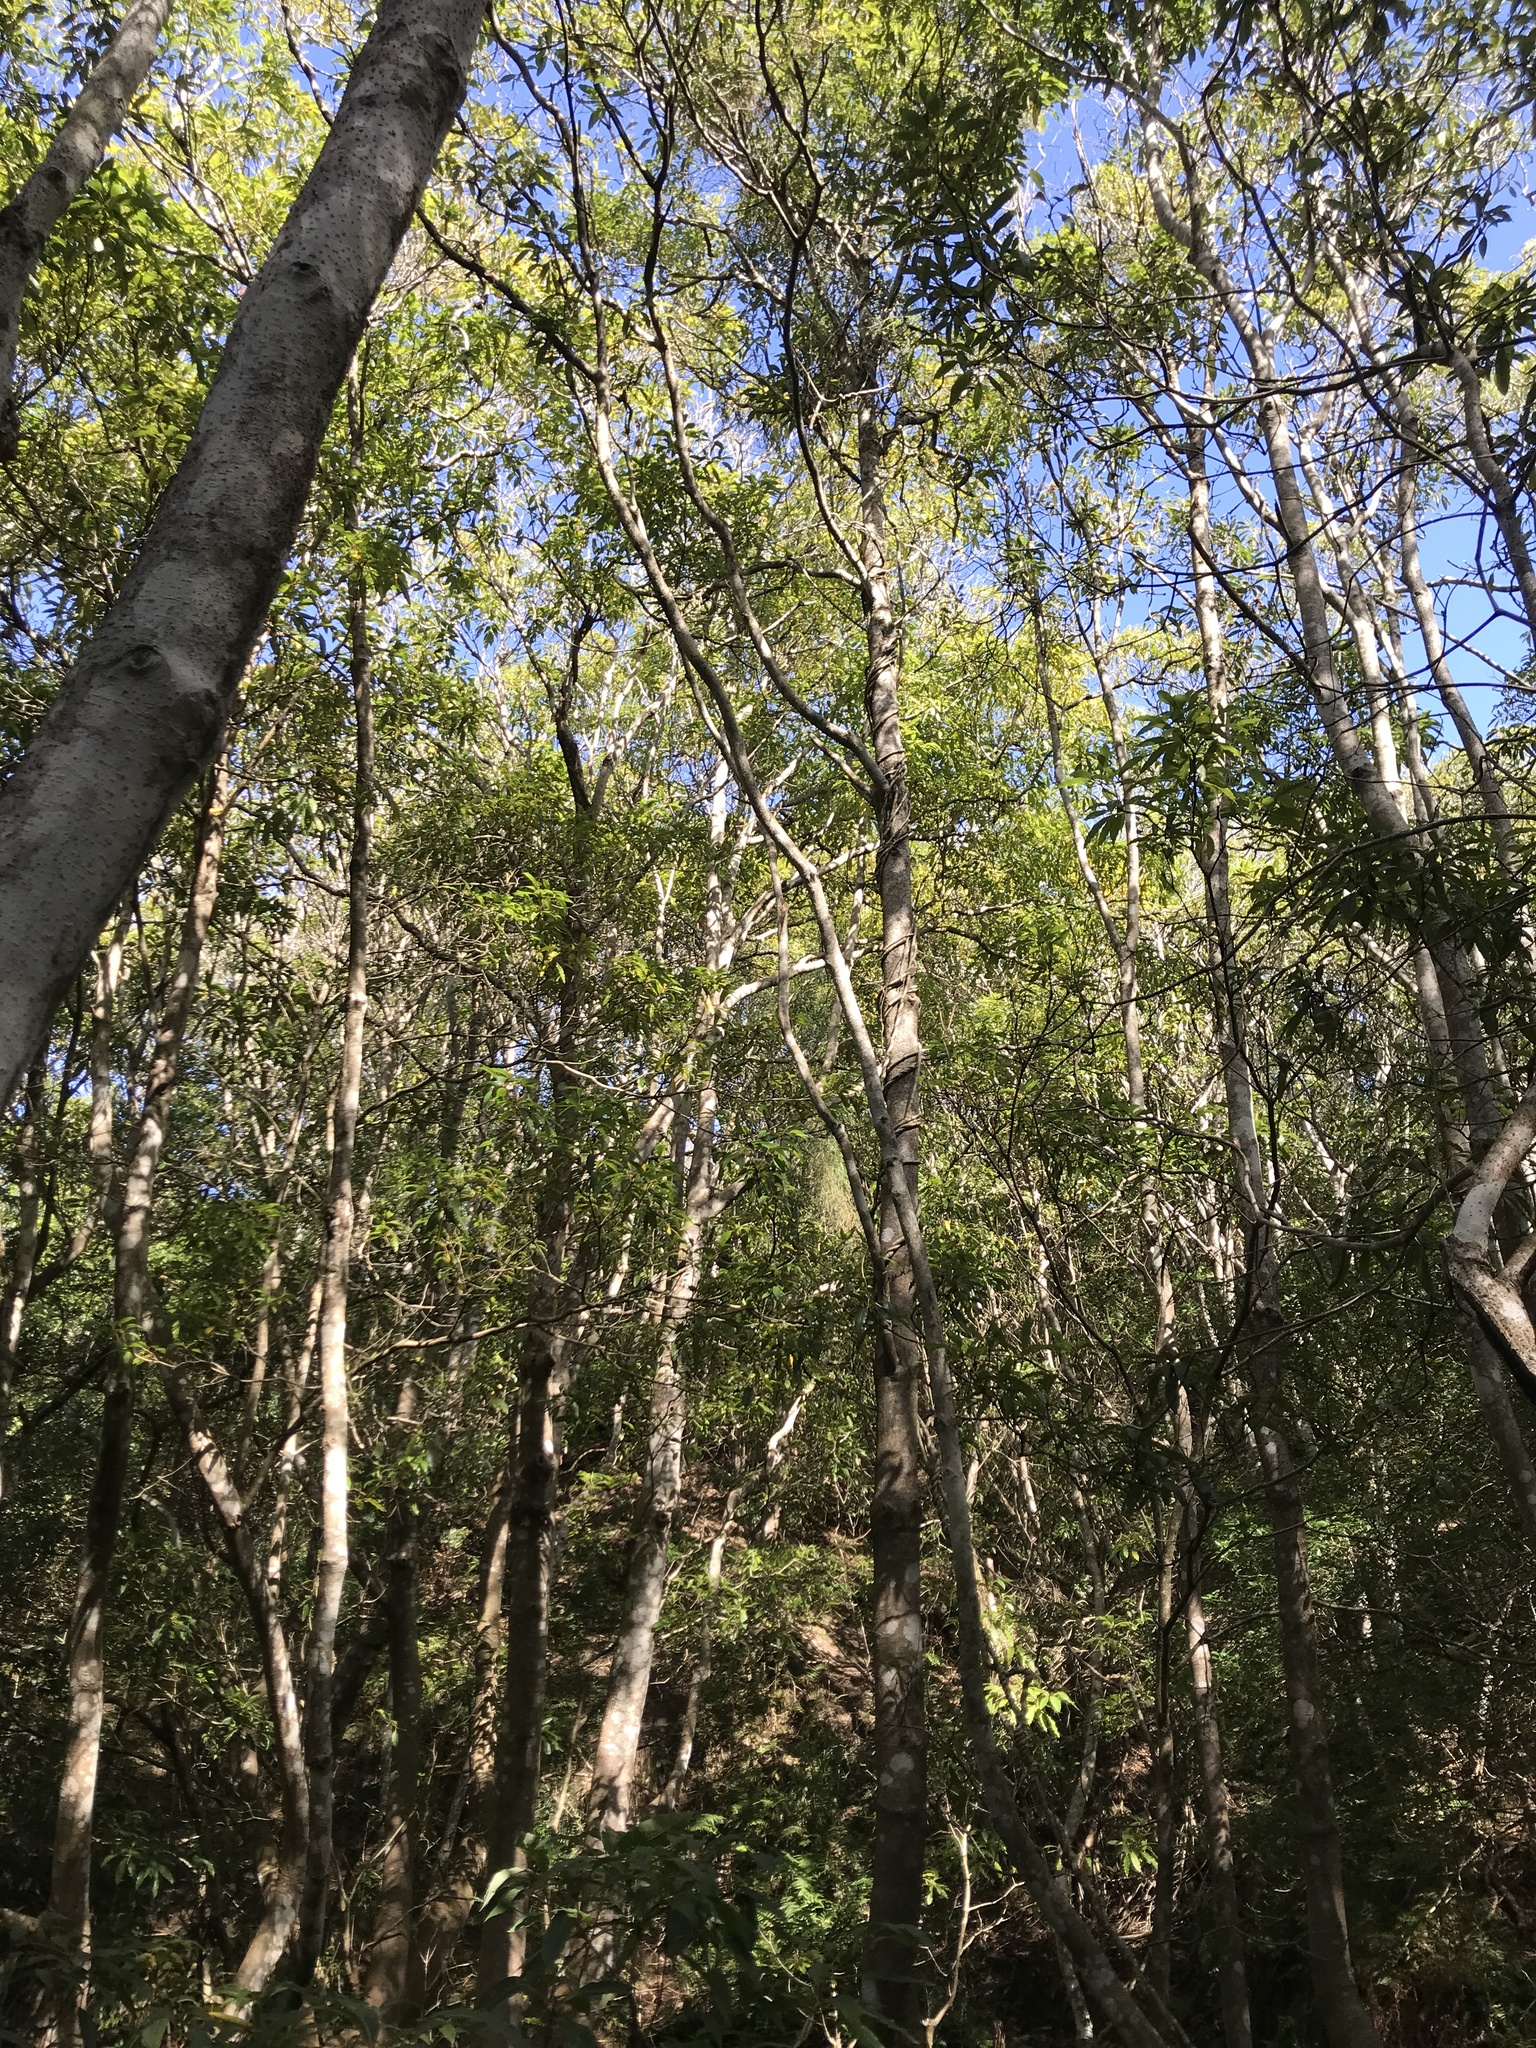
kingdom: Plantae
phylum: Tracheophyta
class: Magnoliopsida
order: Apiales
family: Pittosporaceae
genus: Pittosporum
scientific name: Pittosporum undulatum
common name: Australian cheesewood
